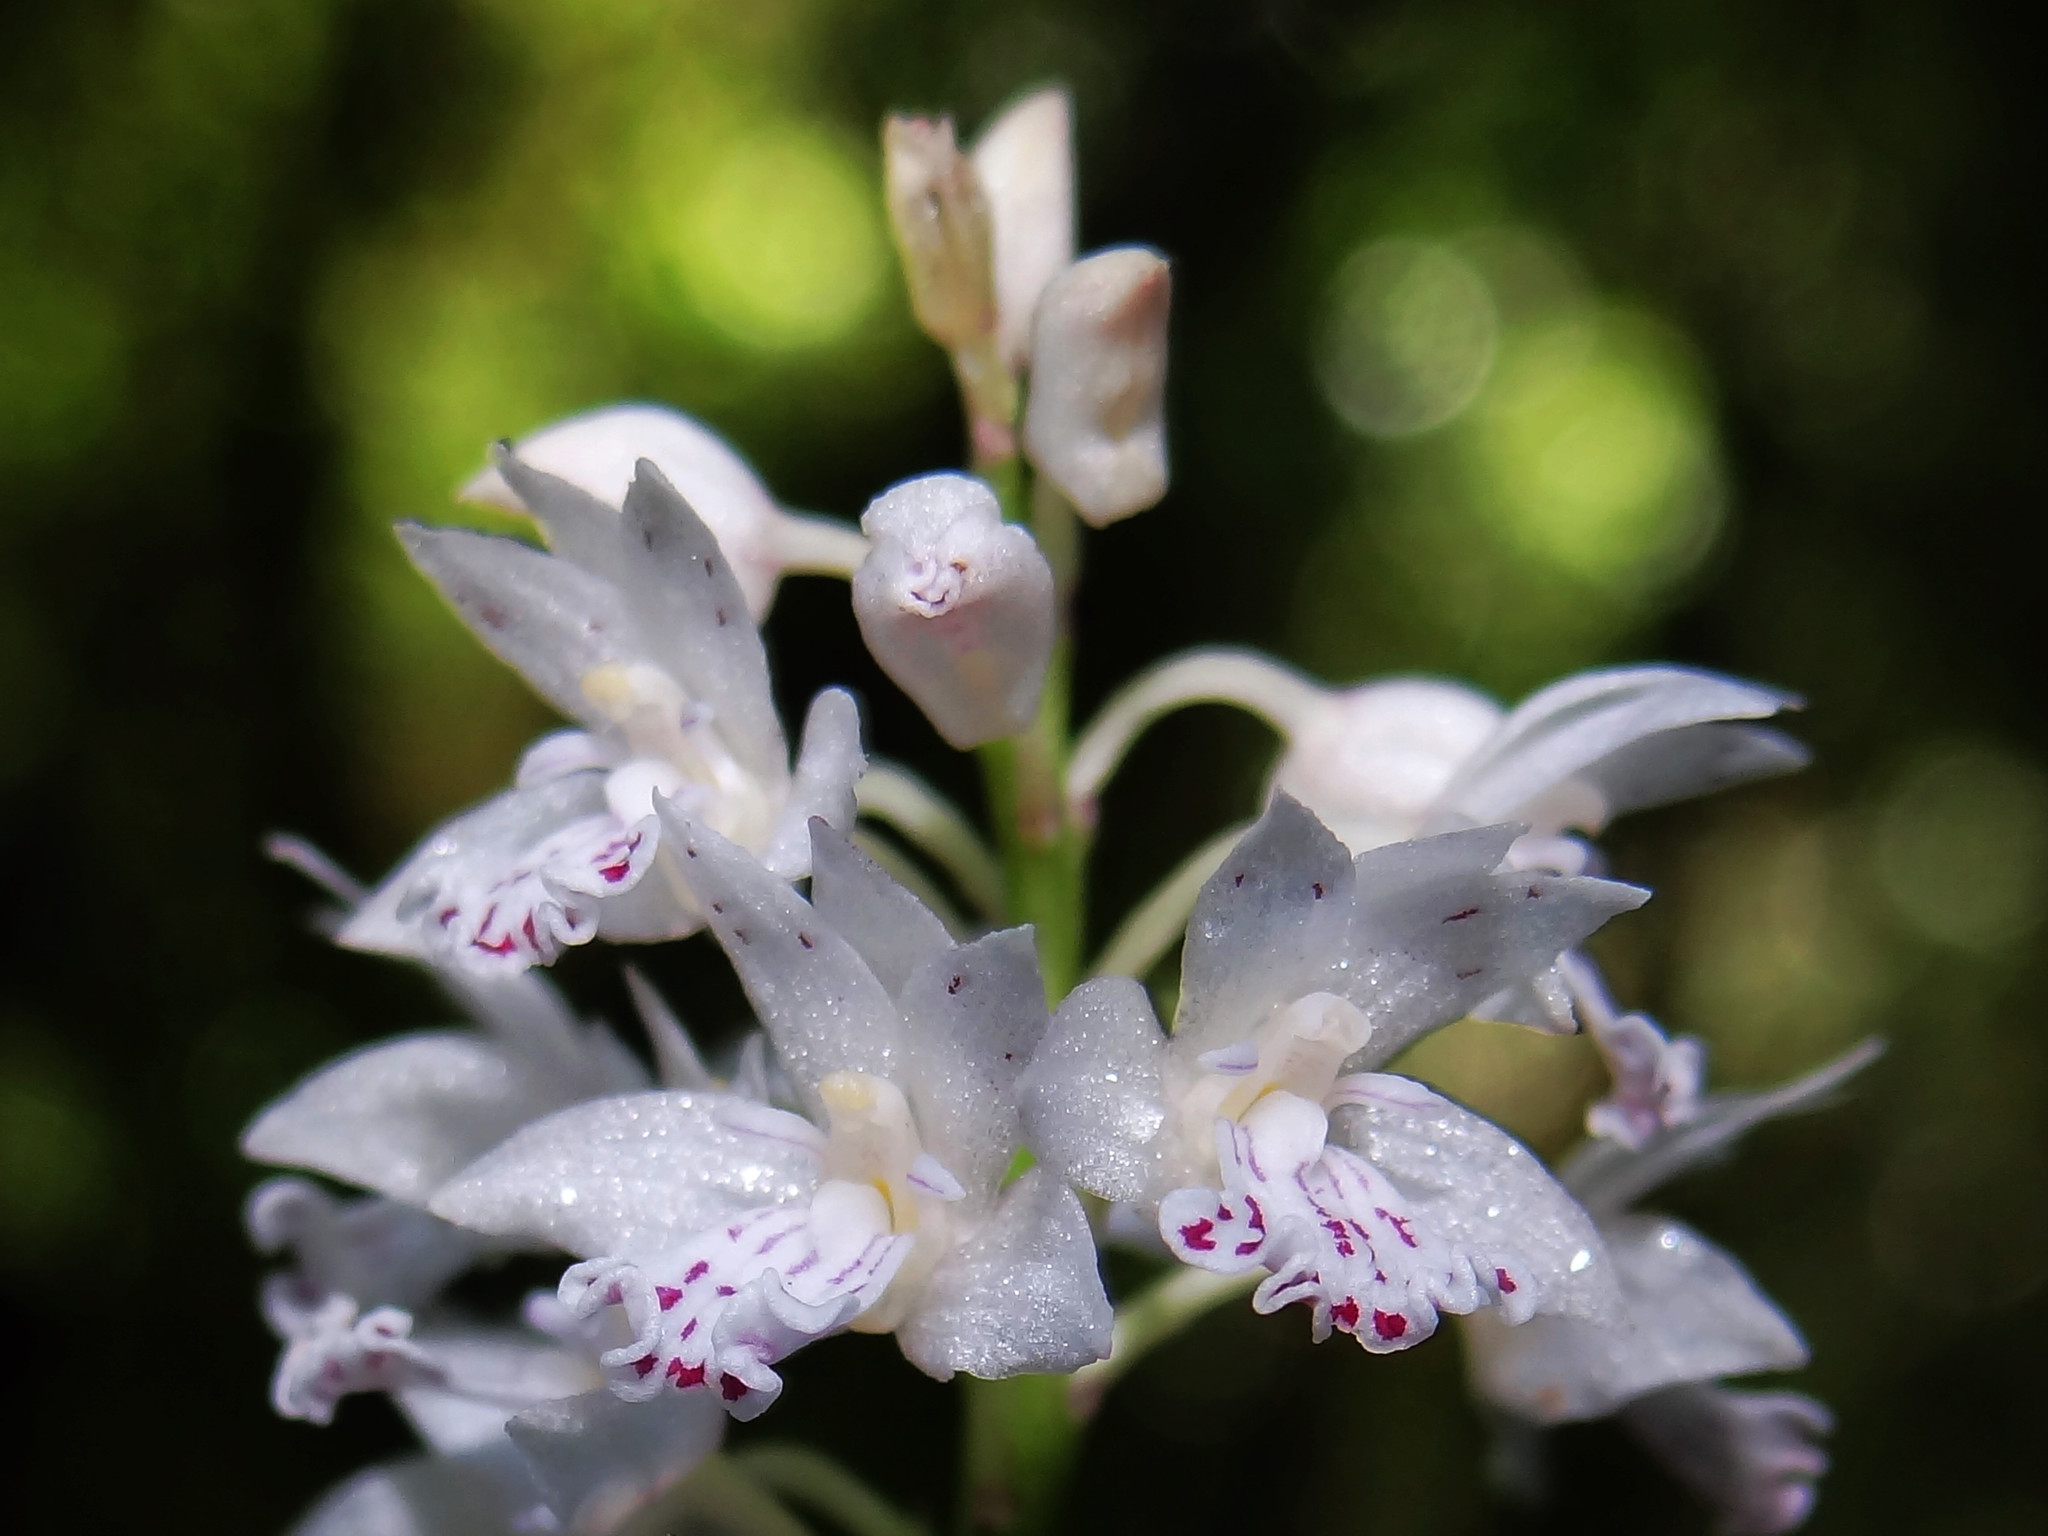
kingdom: Plantae
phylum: Tracheophyta
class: Liliopsida
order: Asparagales
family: Orchidaceae
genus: Oreorchis
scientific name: Oreorchis micrantha
